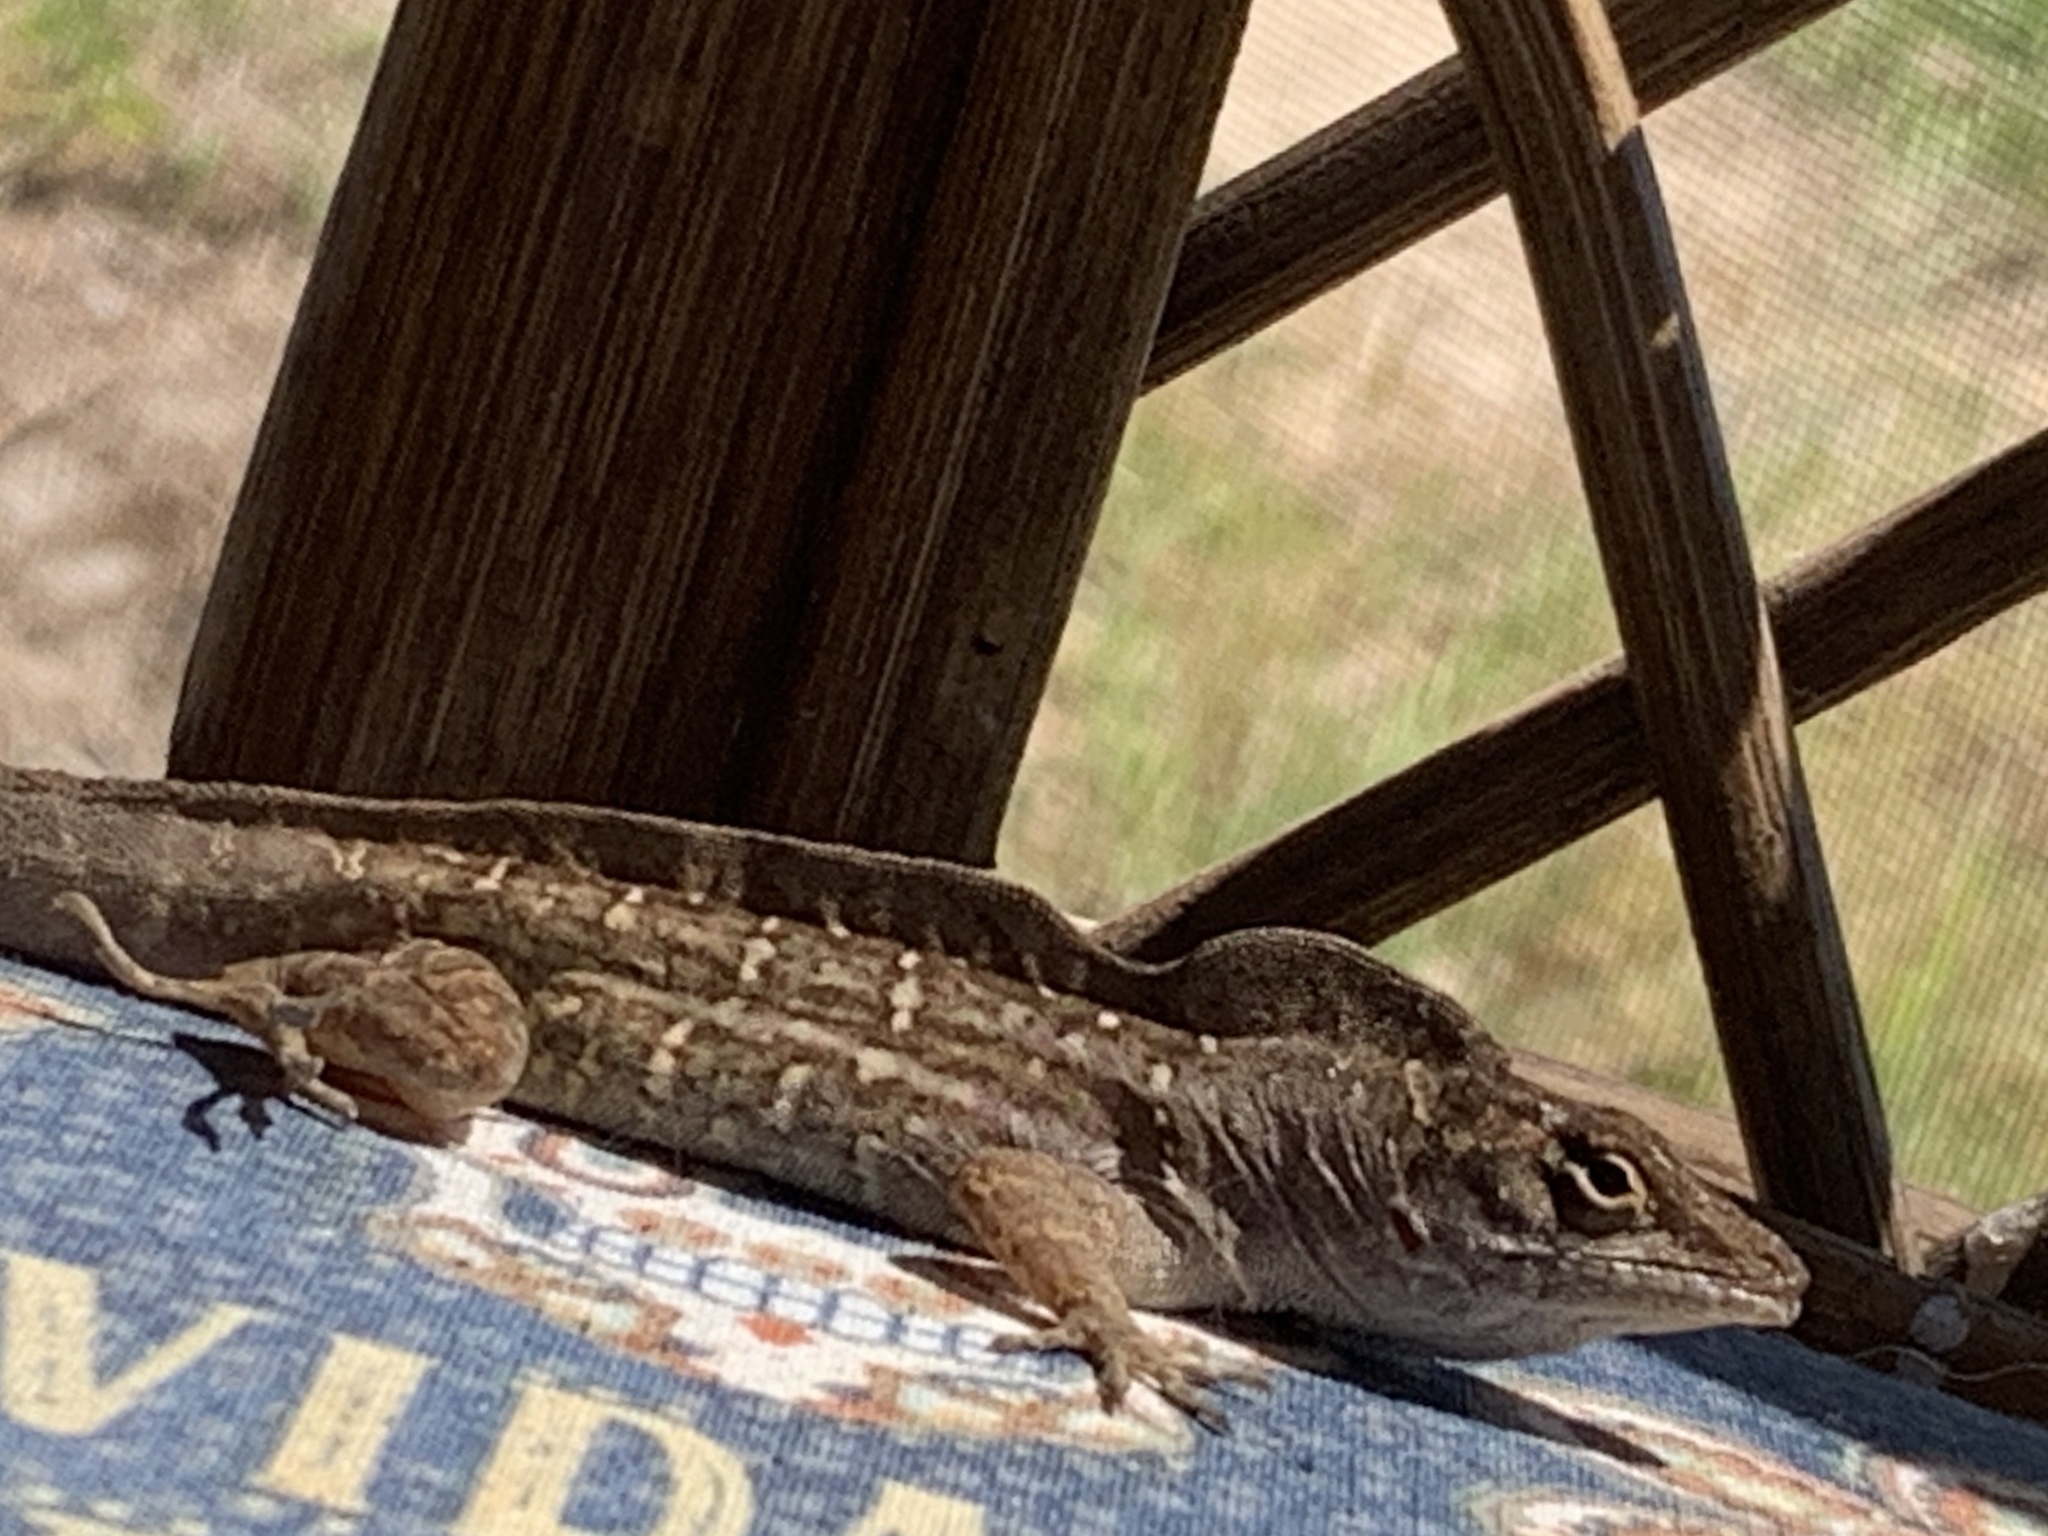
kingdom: Animalia
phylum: Chordata
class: Squamata
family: Dactyloidae
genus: Anolis
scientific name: Anolis sagrei
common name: Brown anole
